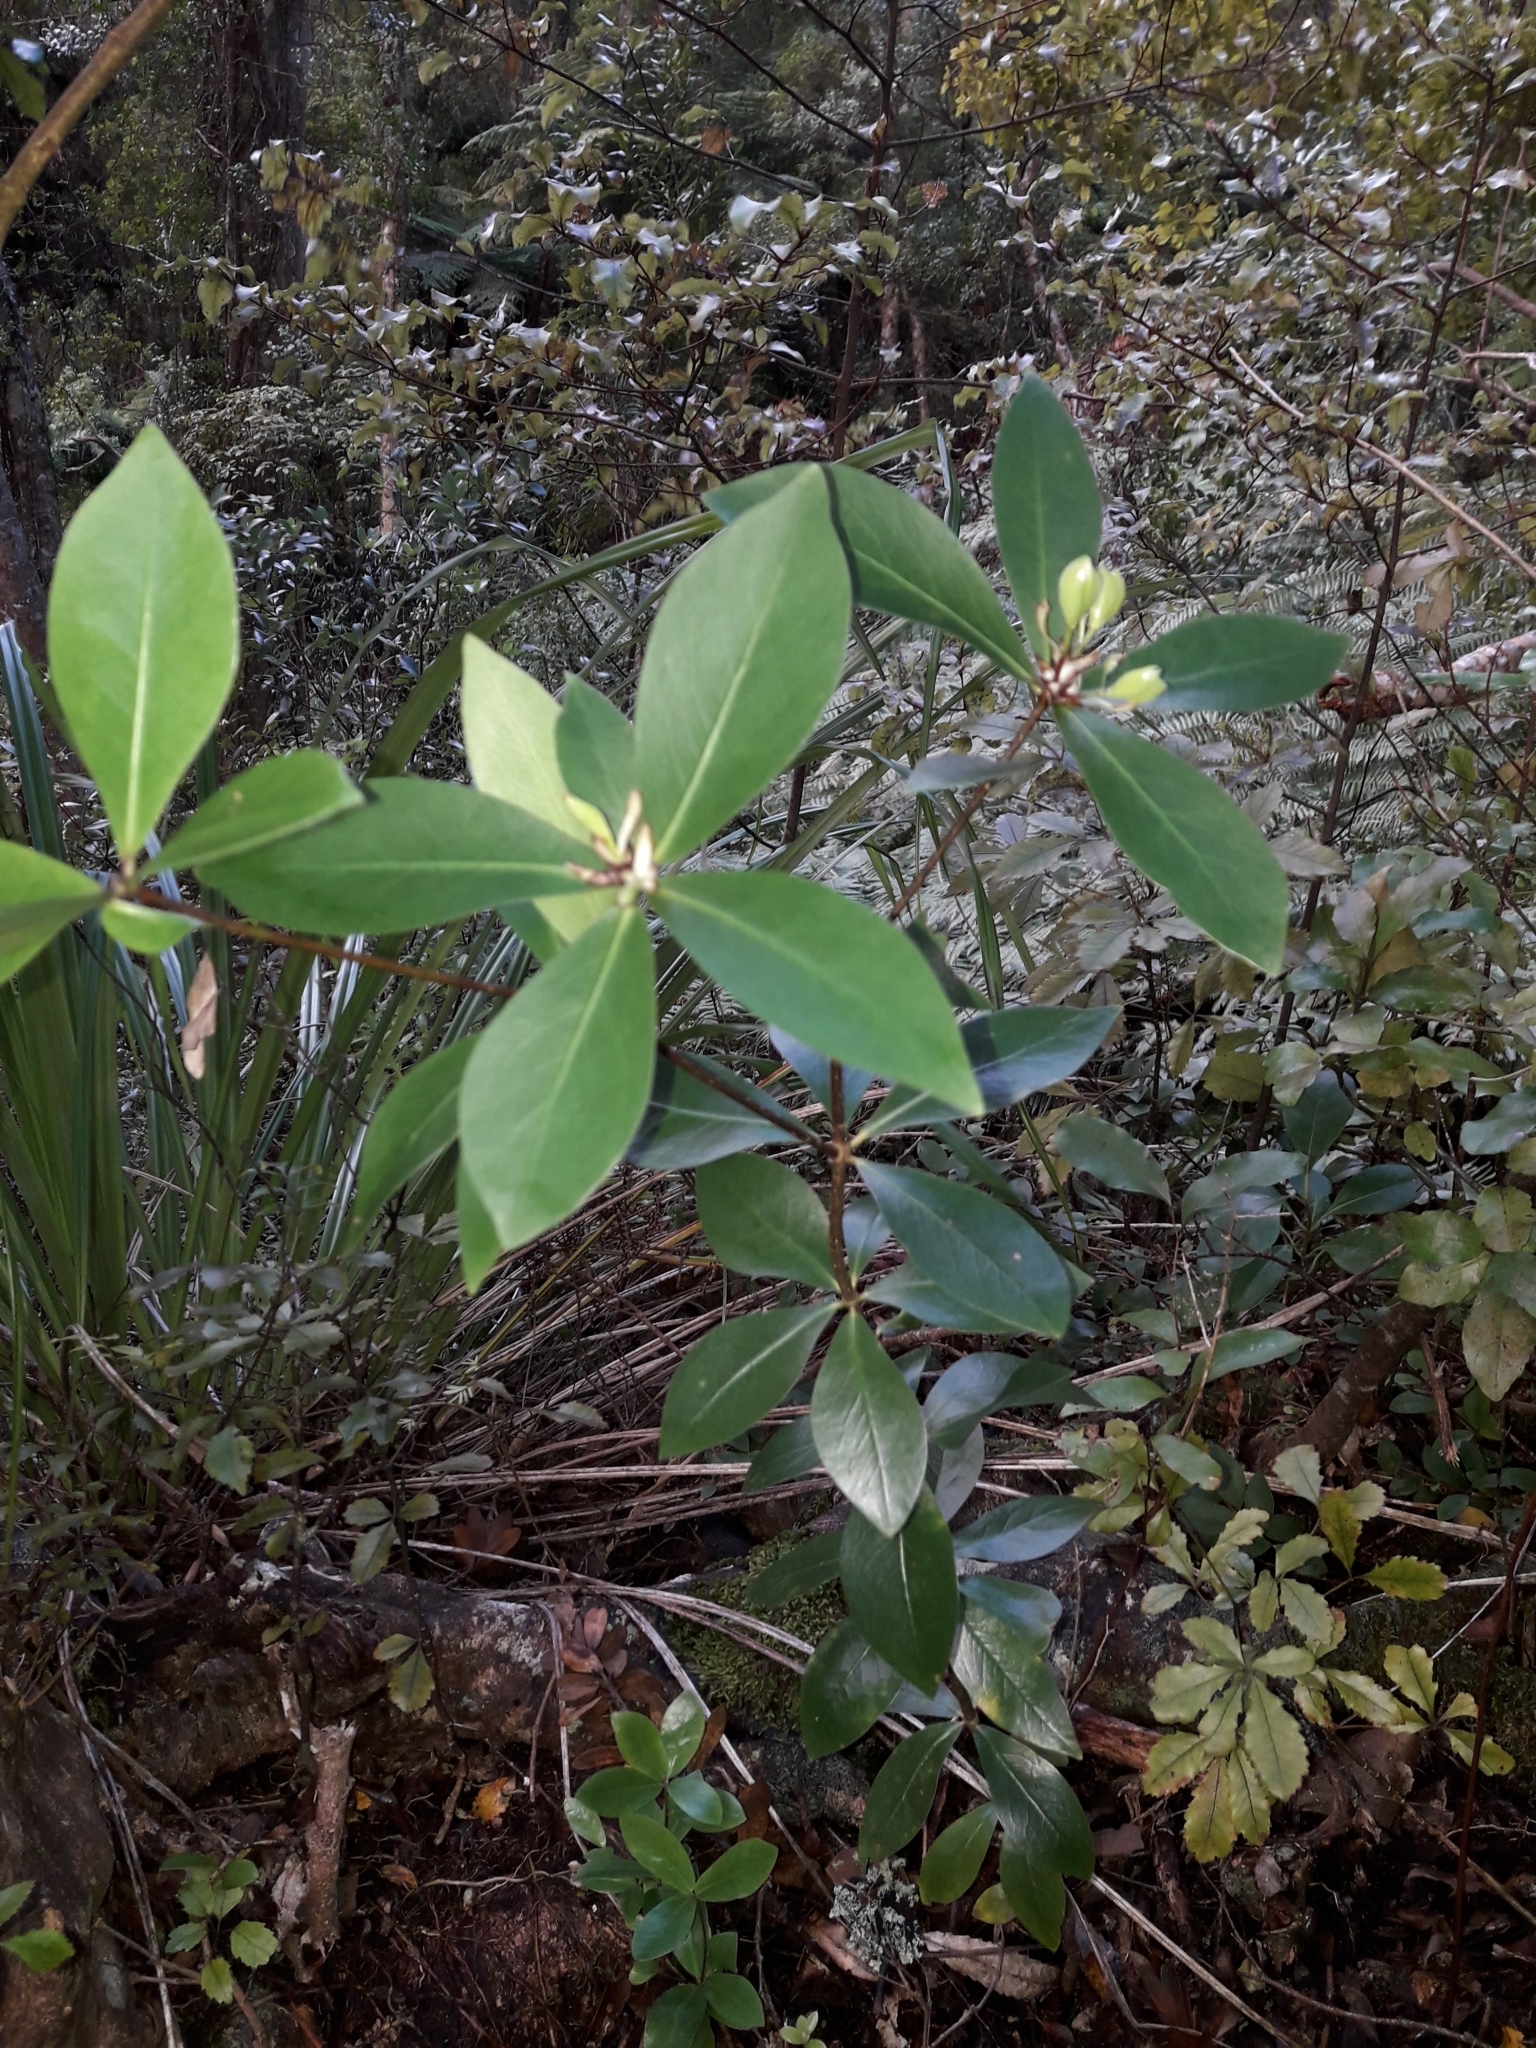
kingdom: Plantae
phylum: Tracheophyta
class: Magnoliopsida
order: Apiales
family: Pittosporaceae
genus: Pittosporum
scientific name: Pittosporum cornifolium
